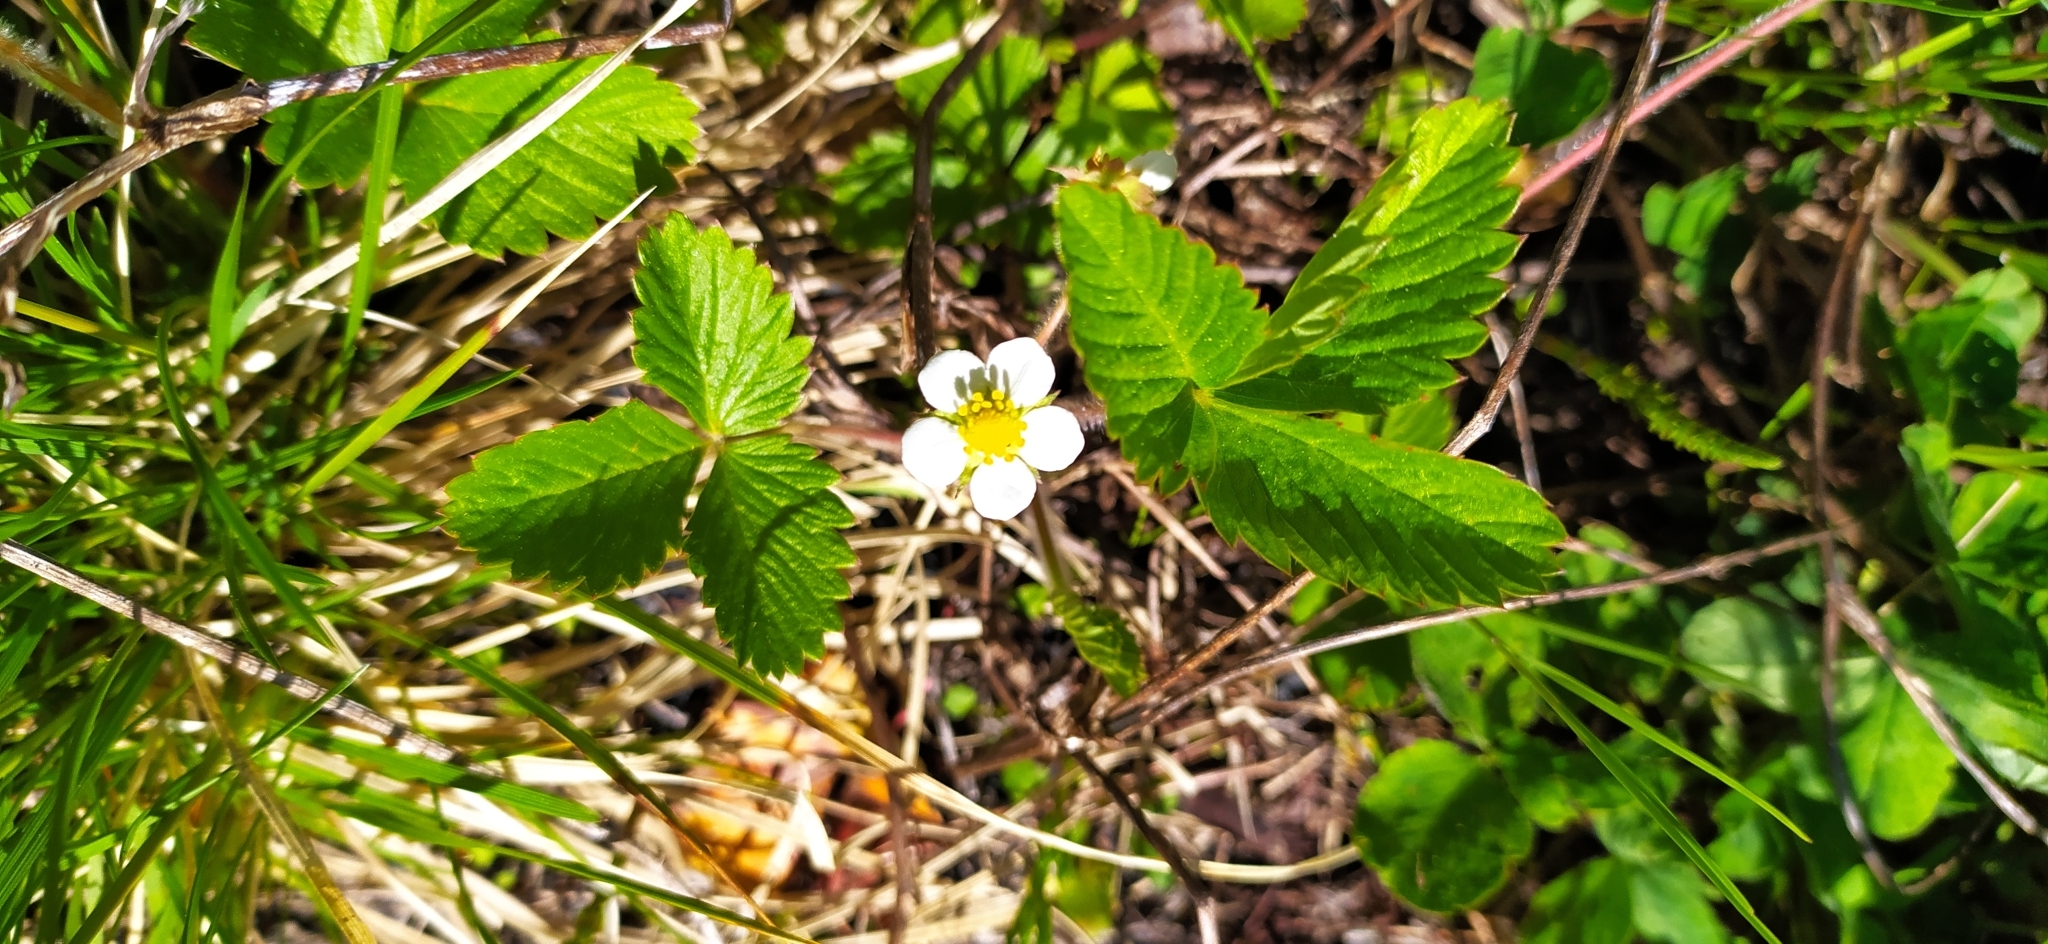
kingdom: Plantae
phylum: Tracheophyta
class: Magnoliopsida
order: Rosales
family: Rosaceae
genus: Fragaria
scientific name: Fragaria vesca
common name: Wild strawberry
